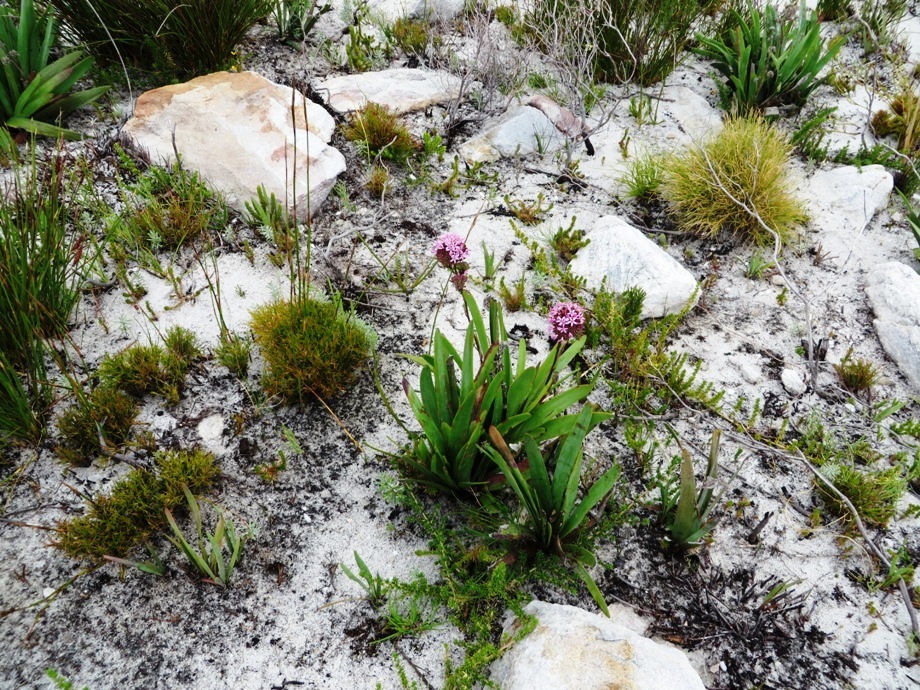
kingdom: Plantae
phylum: Tracheophyta
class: Magnoliopsida
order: Asterales
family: Asteraceae
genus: Corymbium
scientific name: Corymbium enerve
